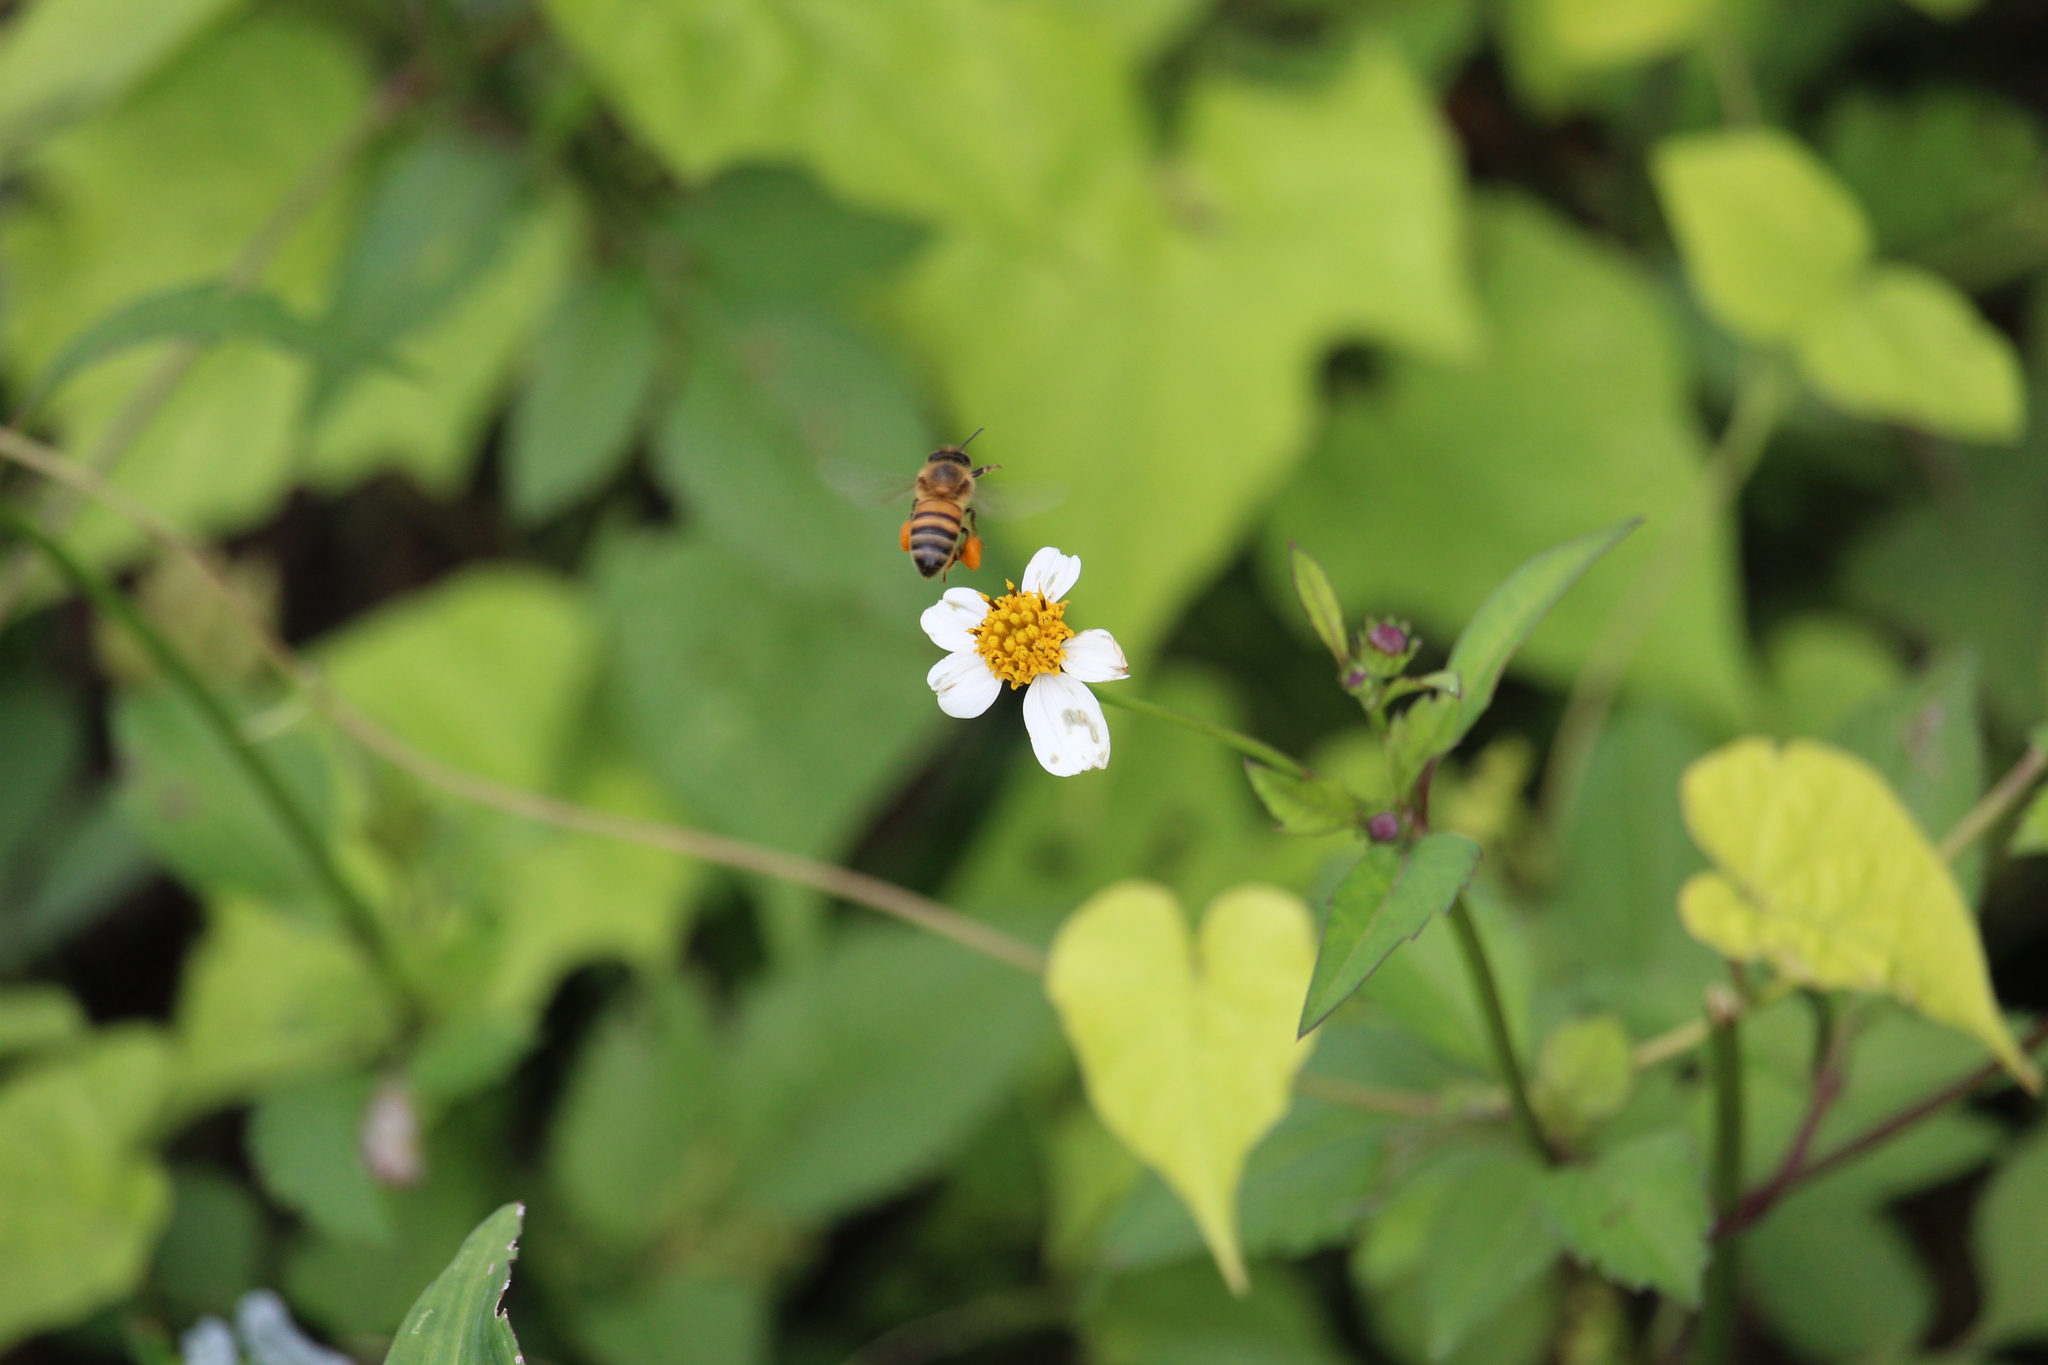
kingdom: Animalia
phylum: Arthropoda
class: Insecta
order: Hymenoptera
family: Apidae
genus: Apis
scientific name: Apis mellifera
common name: Honey bee
